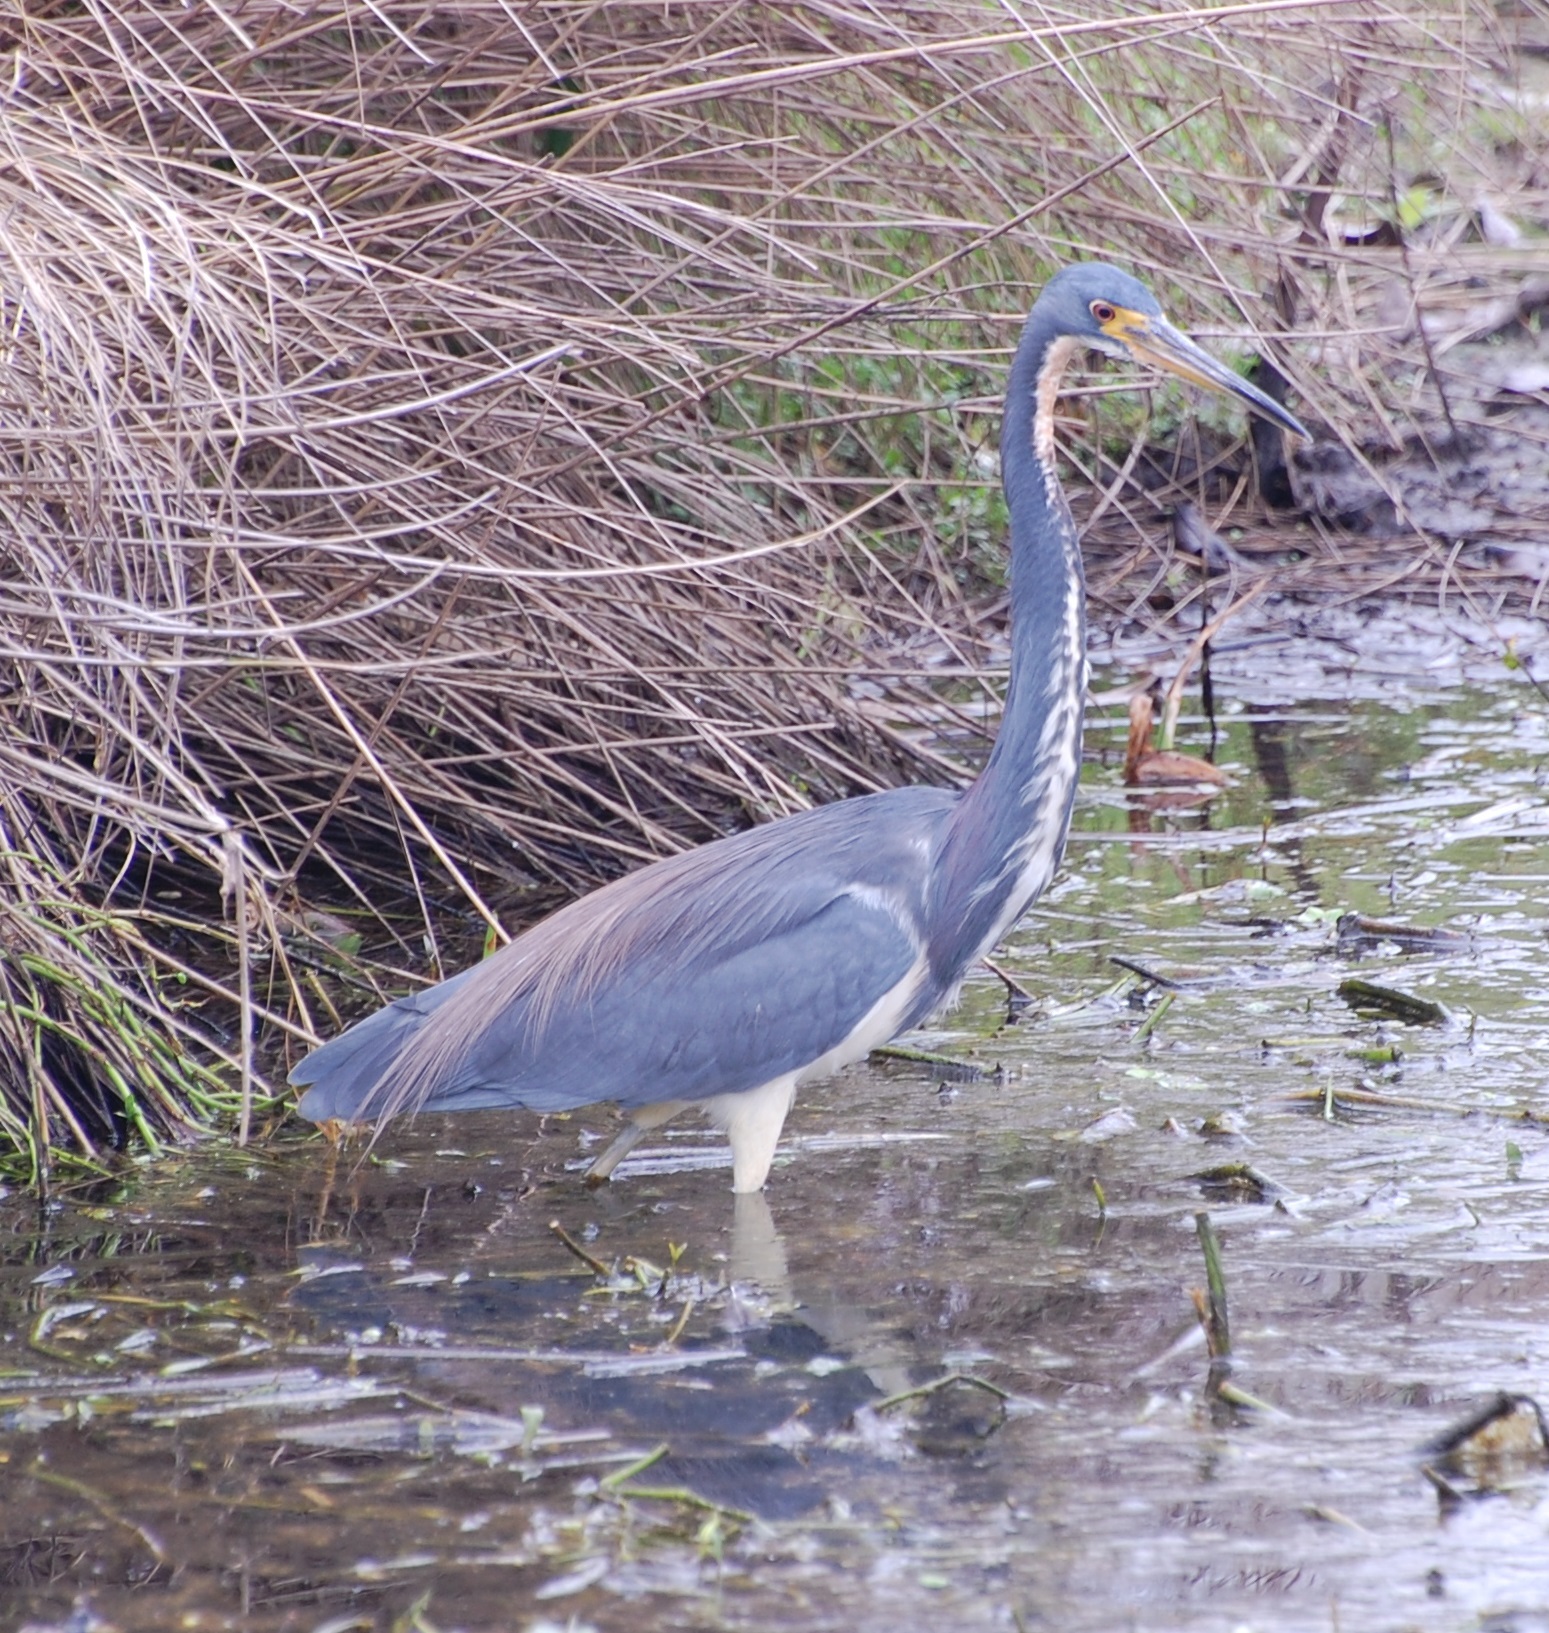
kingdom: Animalia
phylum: Chordata
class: Aves
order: Pelecaniformes
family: Ardeidae
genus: Egretta
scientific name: Egretta tricolor
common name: Tricolored heron
